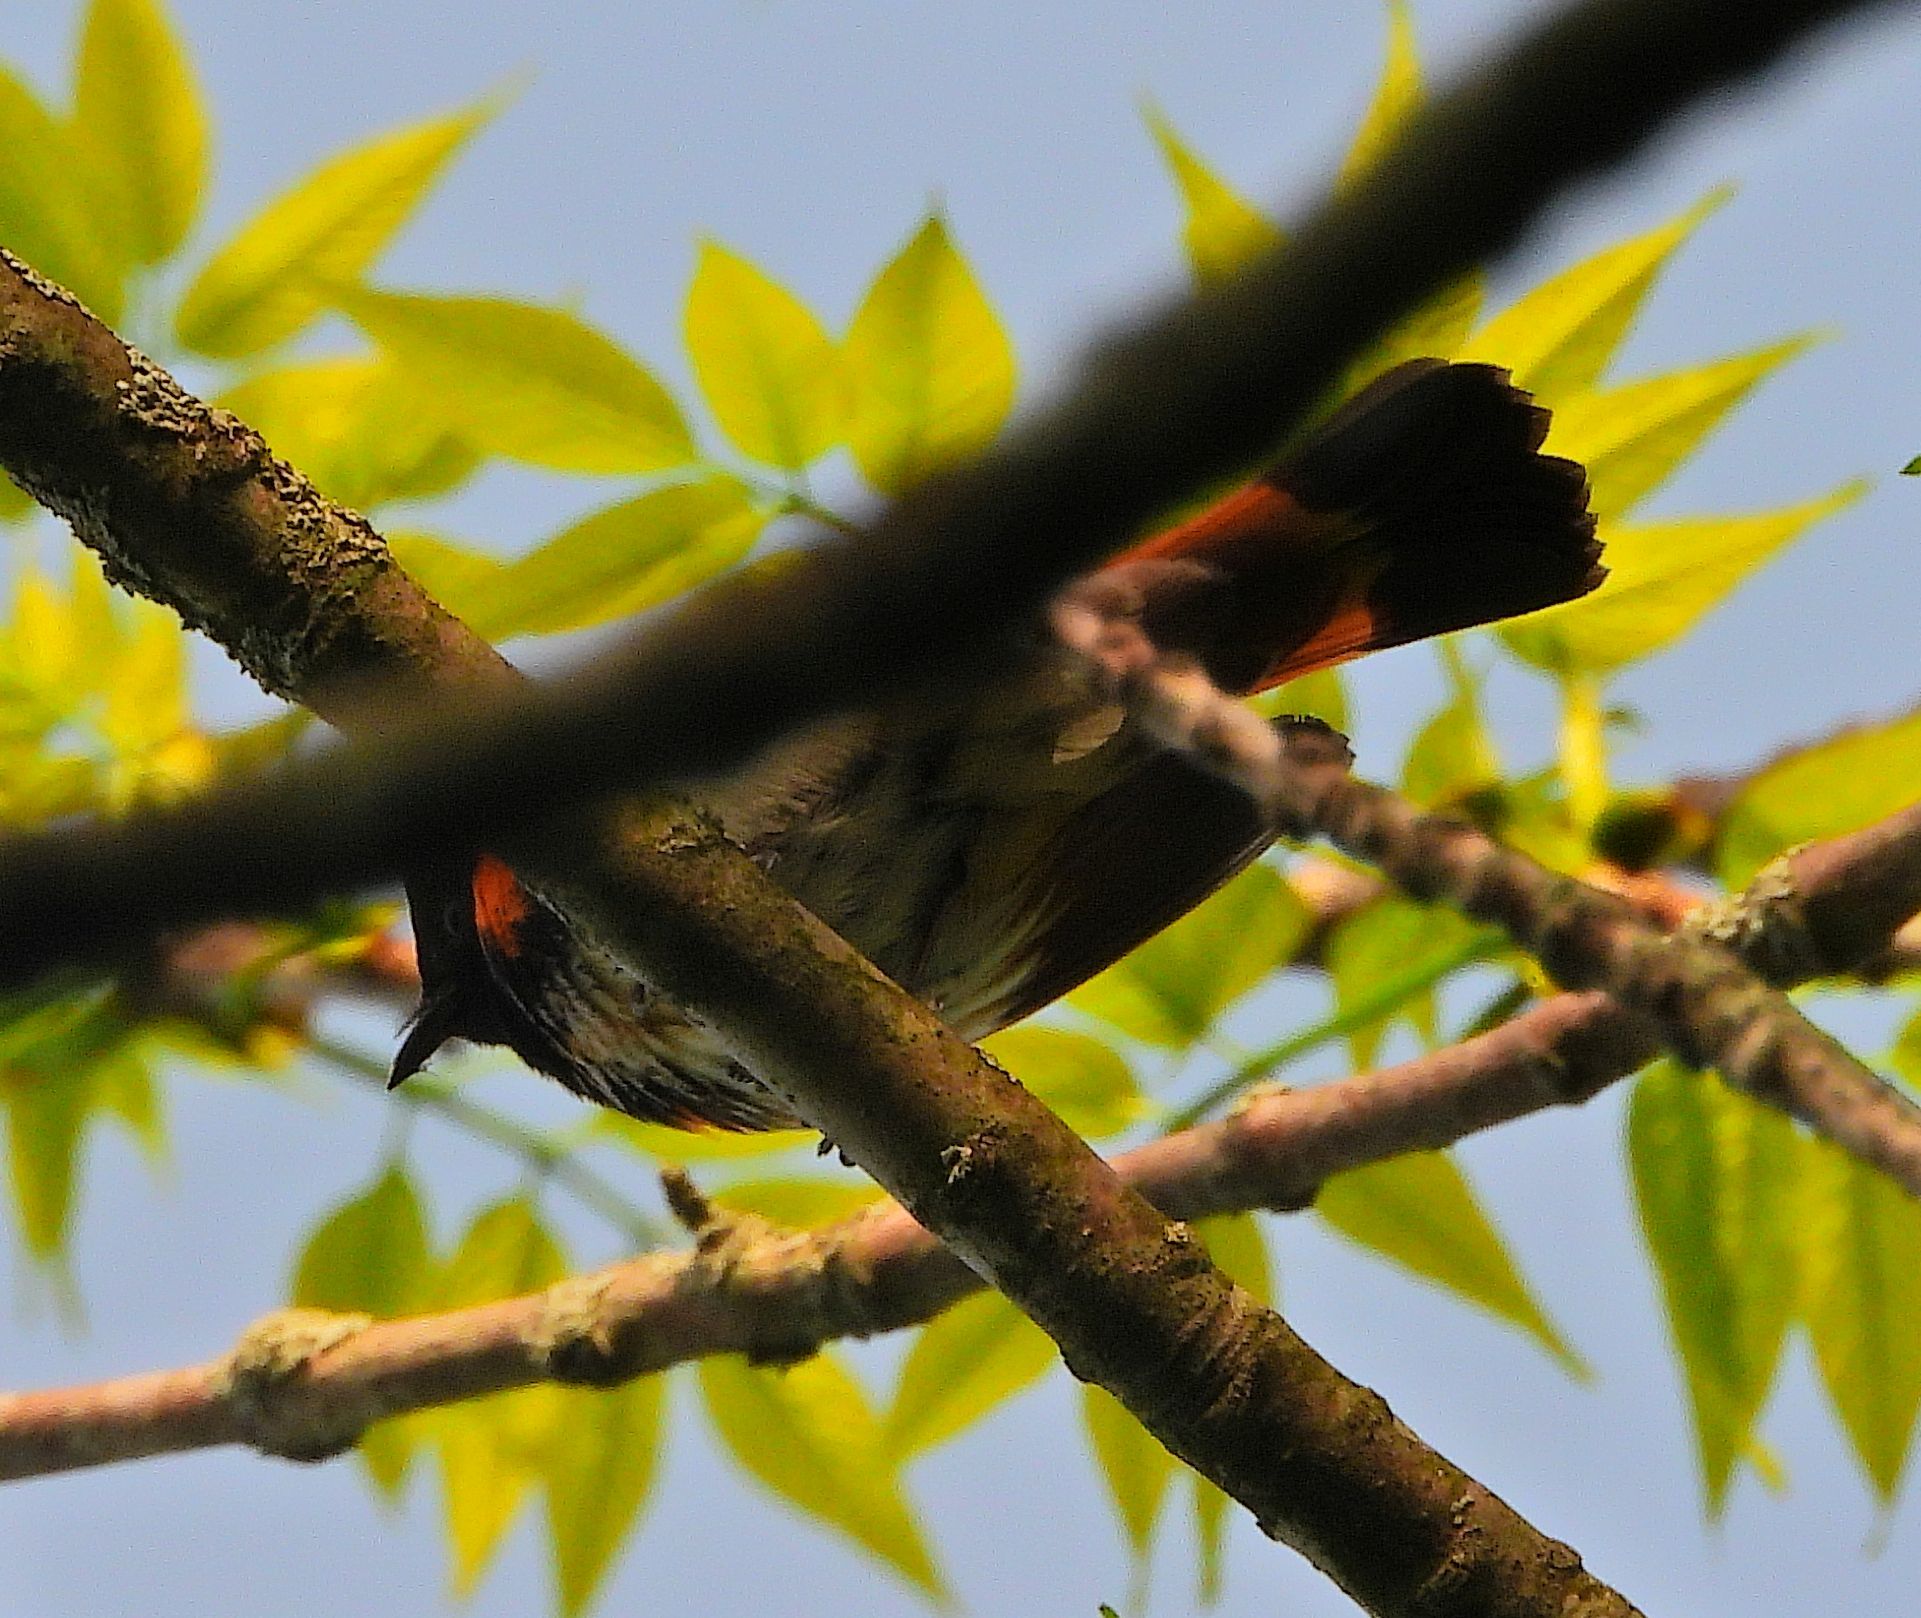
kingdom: Animalia
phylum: Chordata
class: Aves
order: Passeriformes
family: Parulidae
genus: Setophaga
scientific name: Setophaga ruticilla
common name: American redstart
